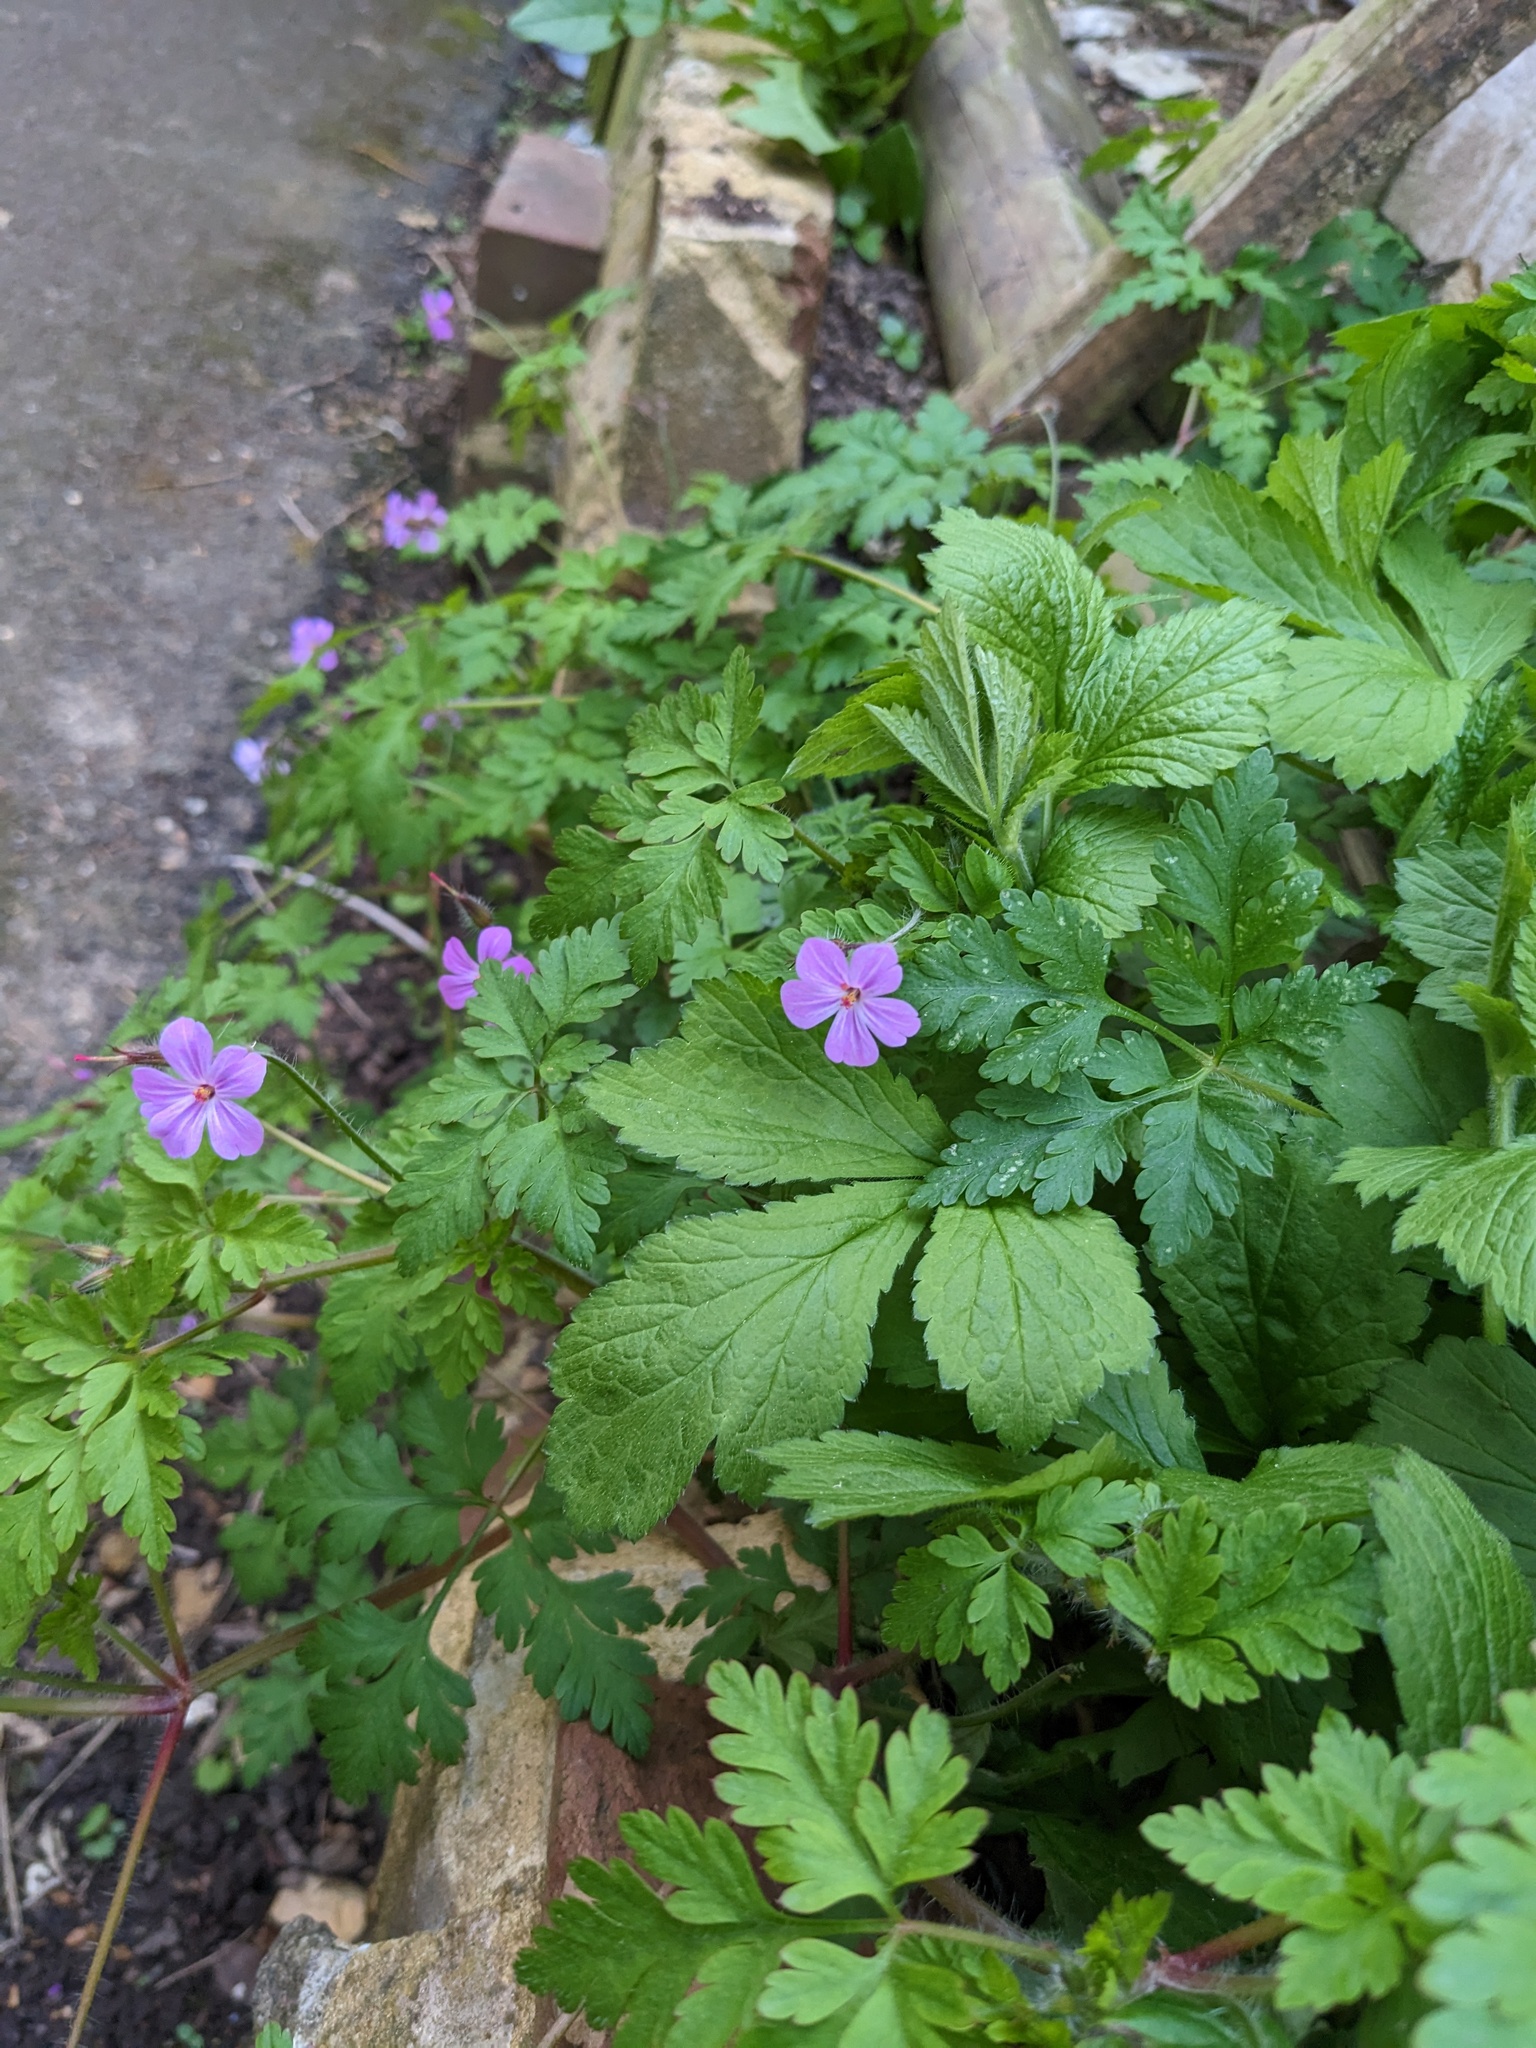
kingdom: Plantae
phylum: Tracheophyta
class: Magnoliopsida
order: Geraniales
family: Geraniaceae
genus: Geranium
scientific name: Geranium robertianum
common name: Herb-robert
